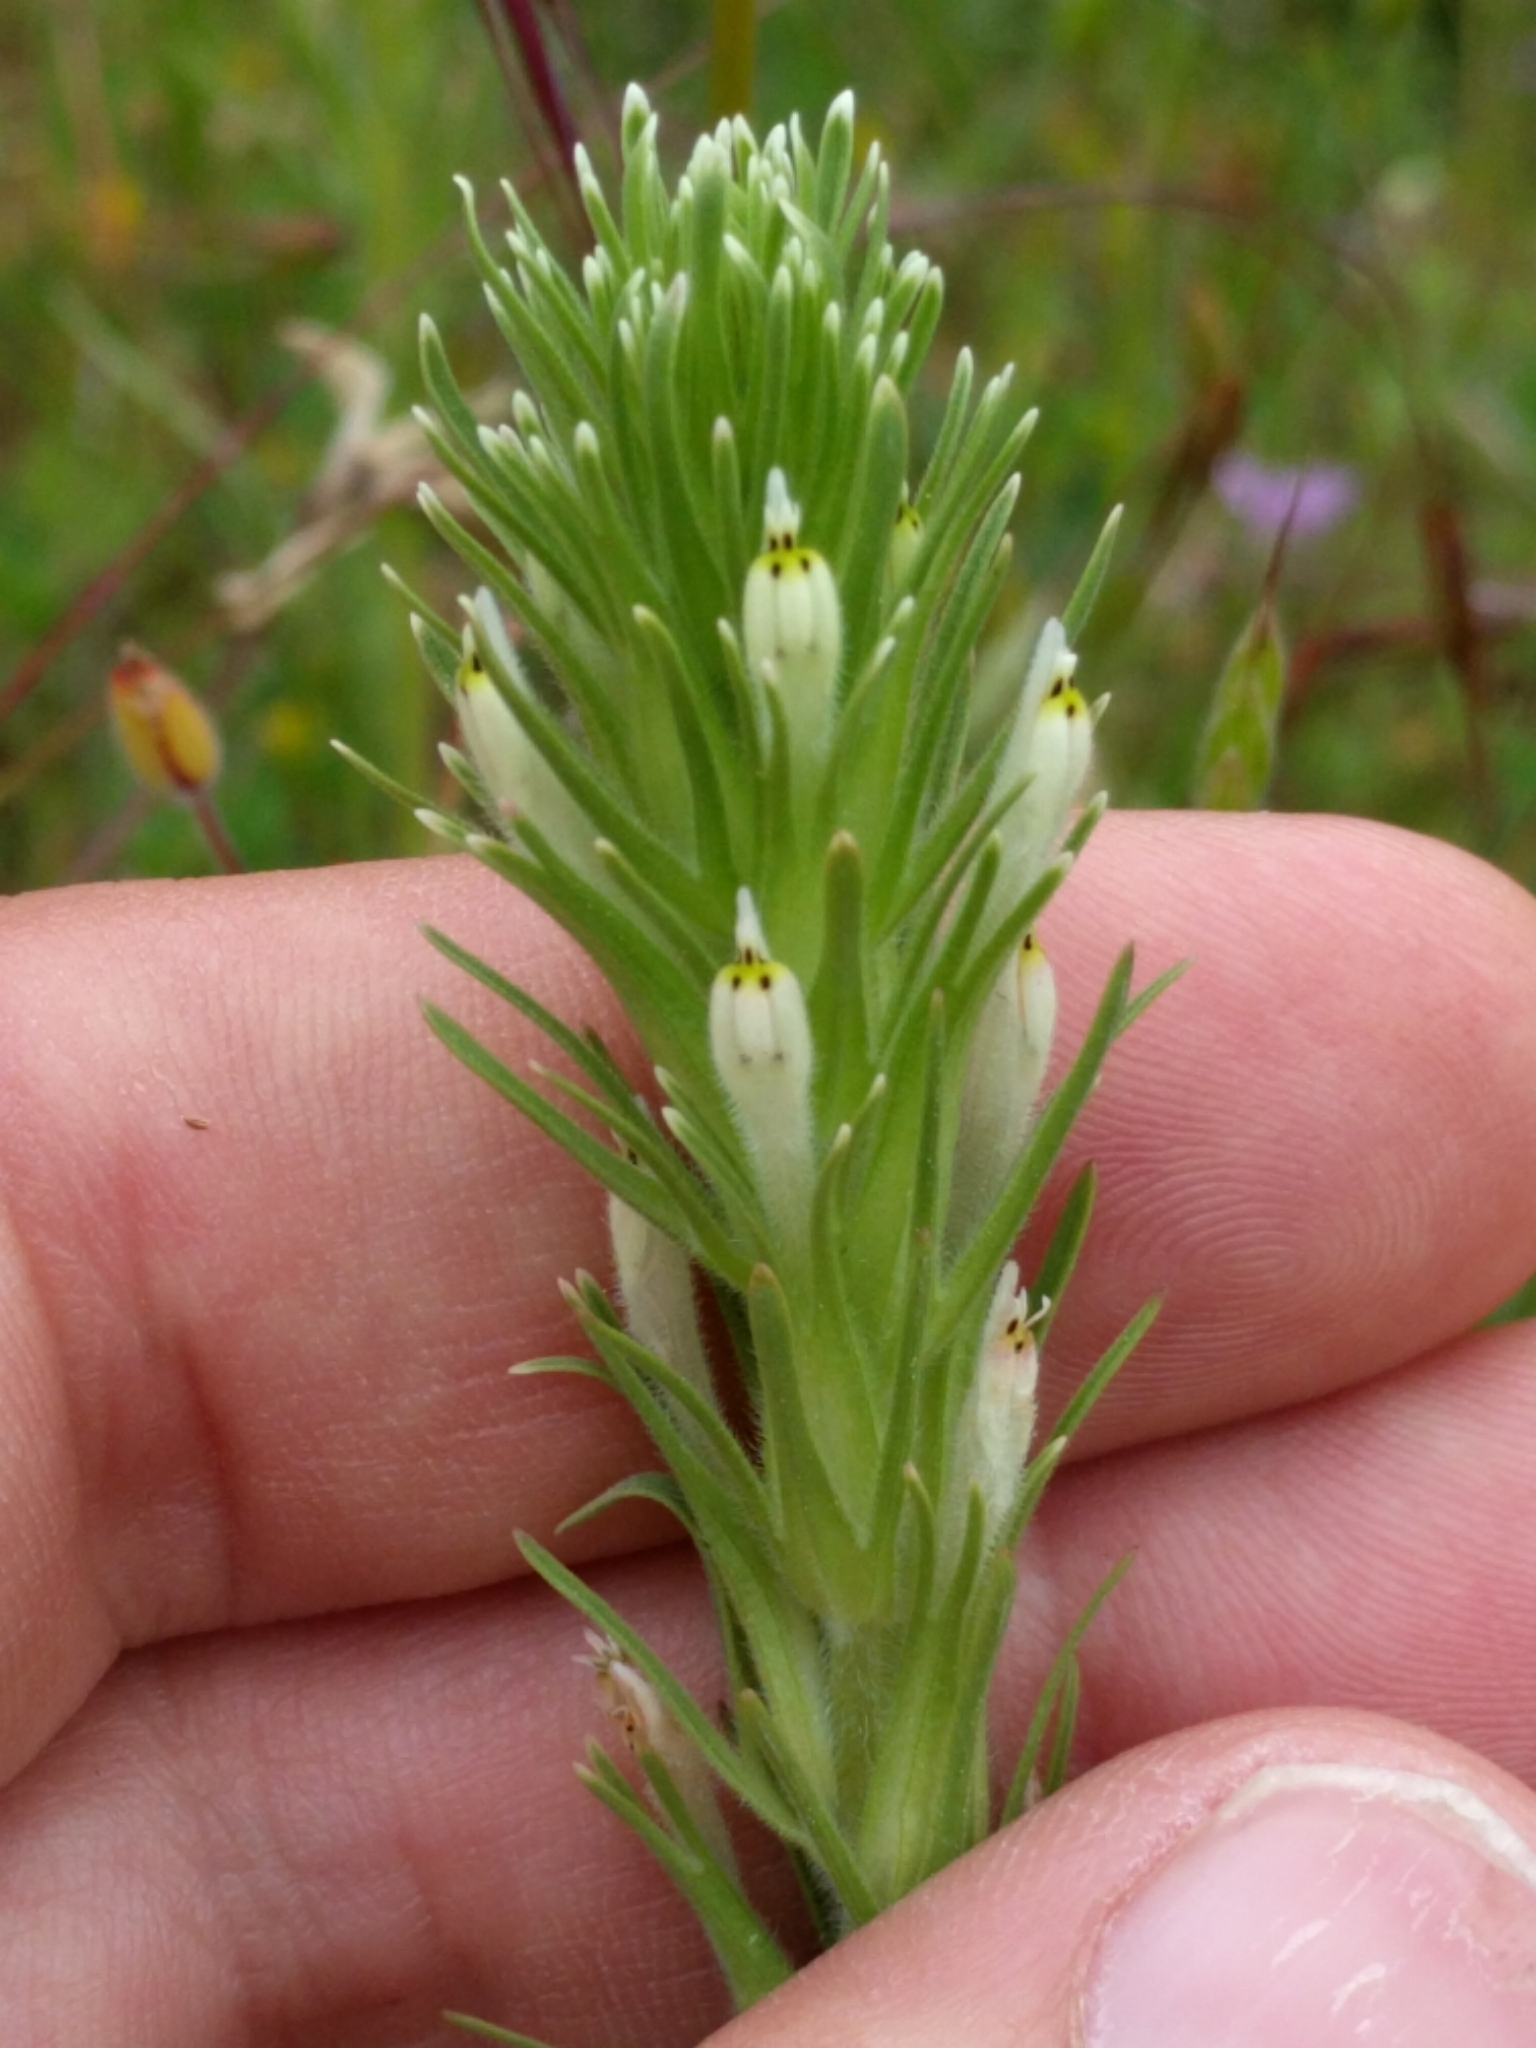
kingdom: Plantae
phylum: Tracheophyta
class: Magnoliopsida
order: Lamiales
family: Orobanchaceae
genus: Castilleja
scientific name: Castilleja attenuata
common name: Valley tassels
